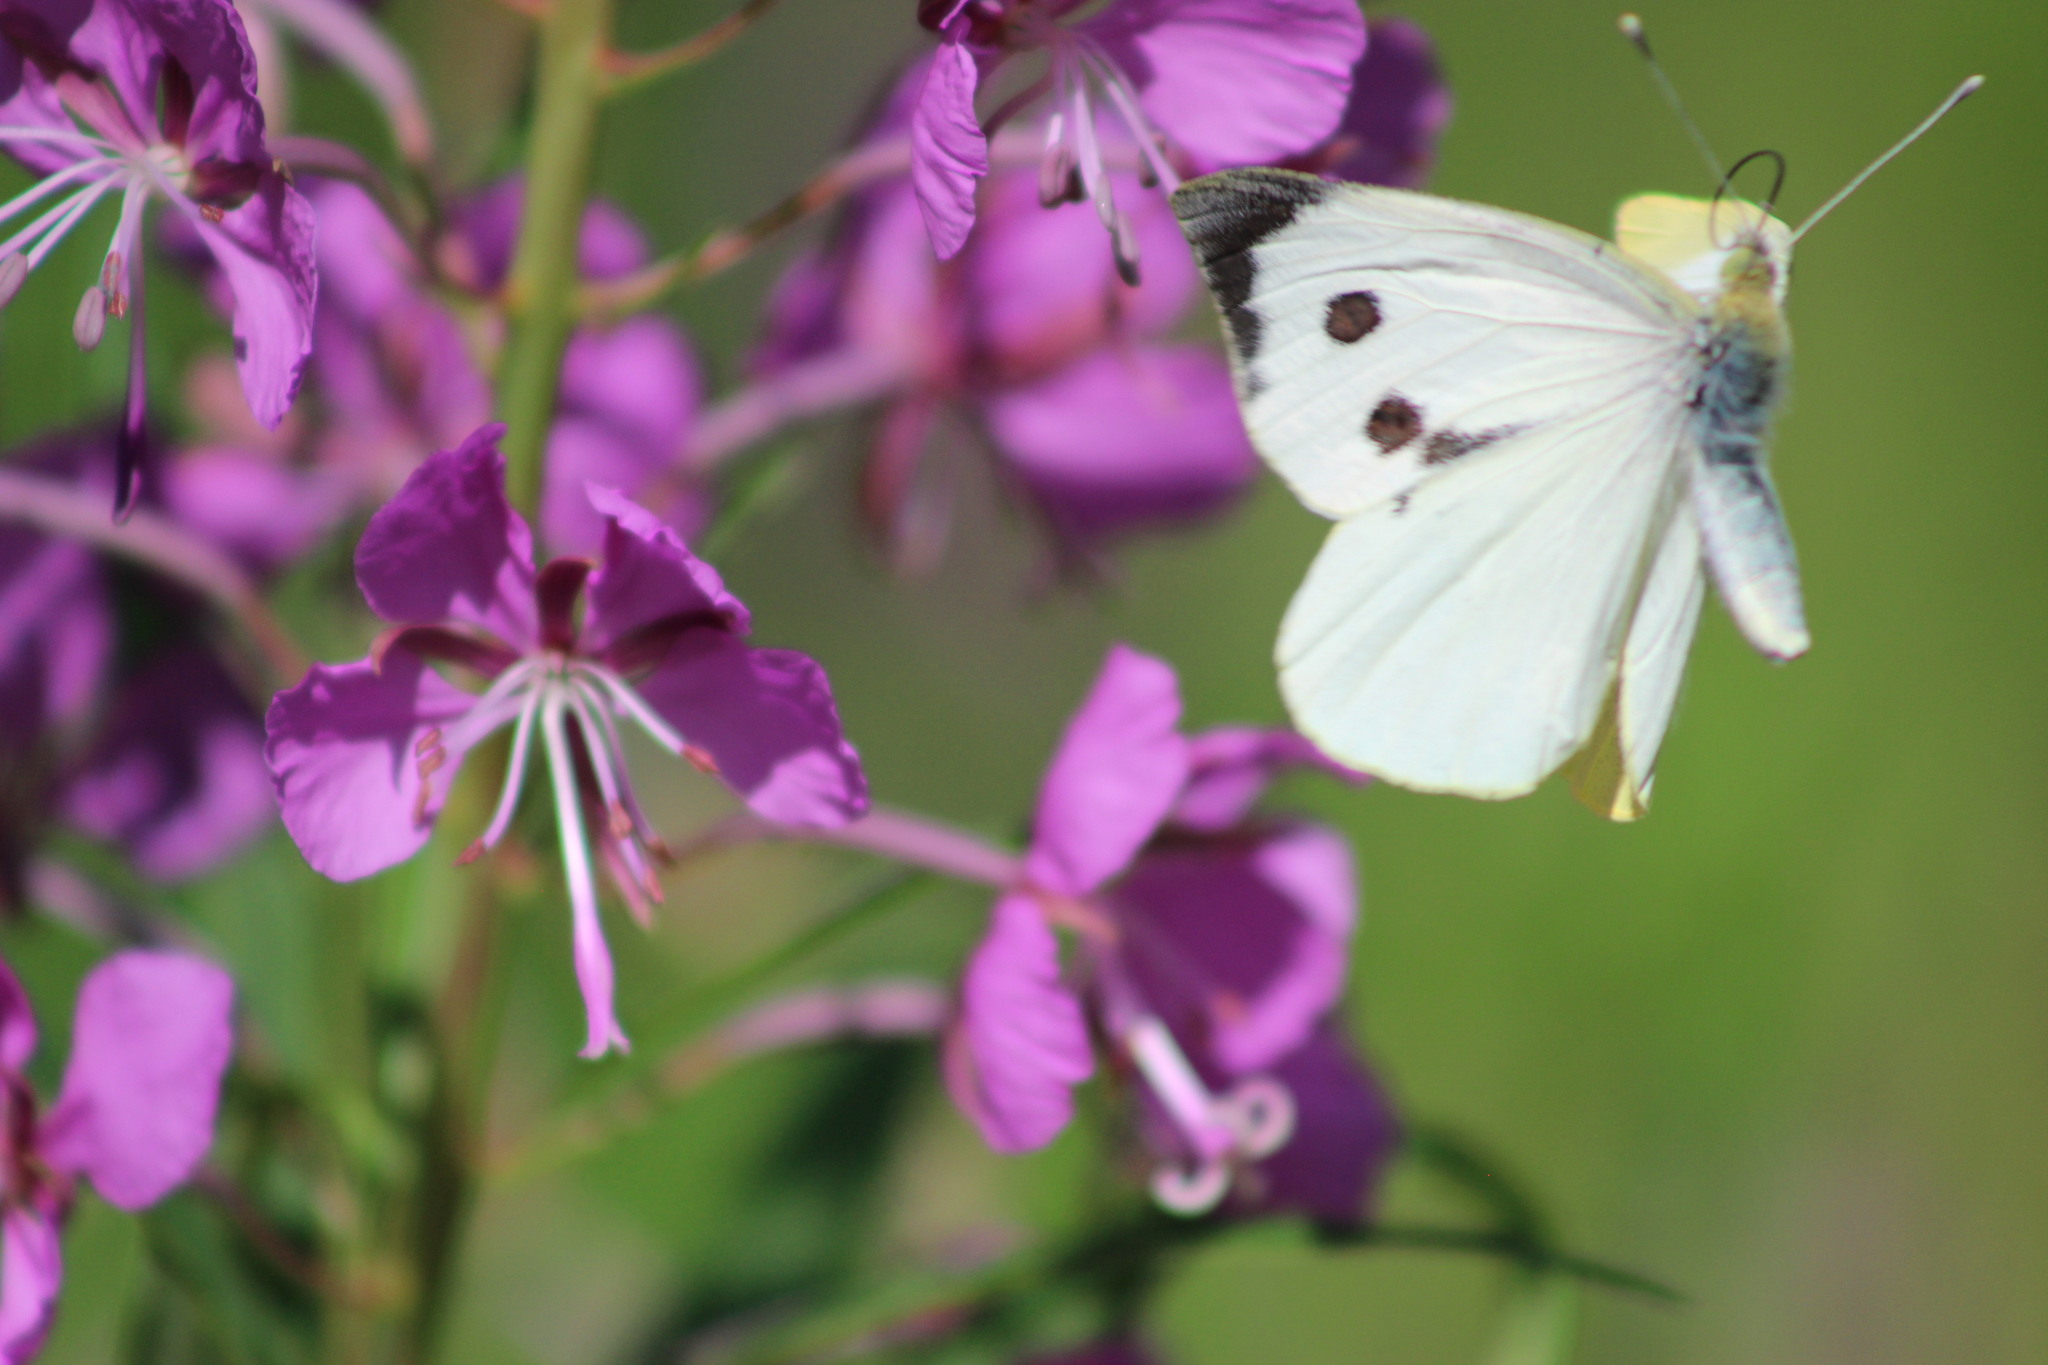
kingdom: Animalia
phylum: Arthropoda
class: Insecta
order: Lepidoptera
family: Pieridae
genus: Pieris
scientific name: Pieris brassicae
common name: Large white
